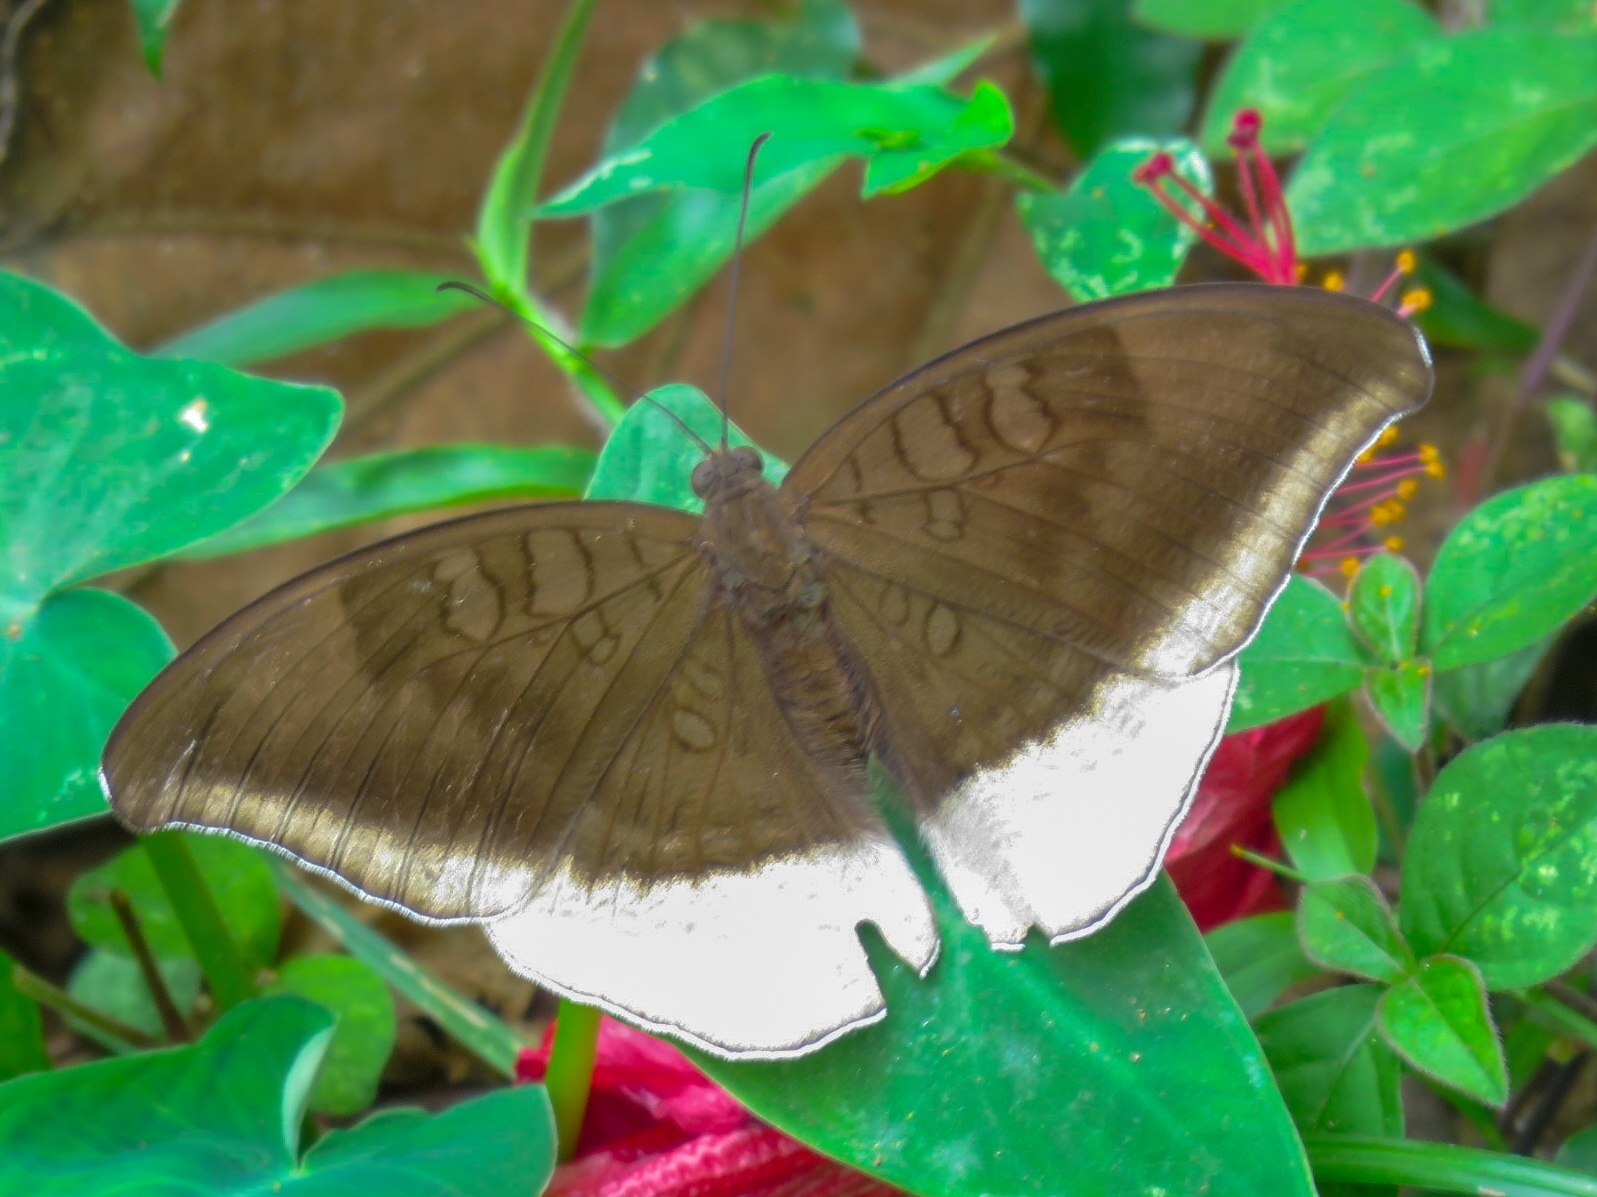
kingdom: Animalia
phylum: Arthropoda
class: Insecta
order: Lepidoptera
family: Nymphalidae
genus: Tanaecia
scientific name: Tanaecia lepidea
